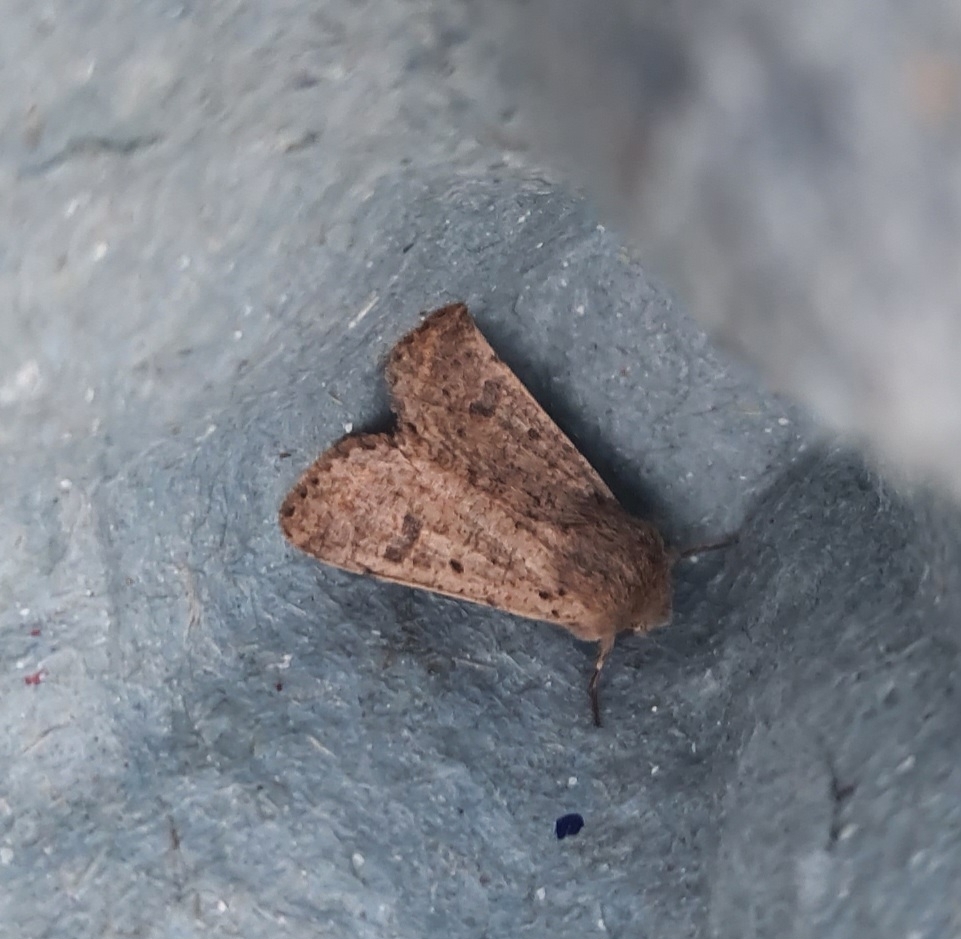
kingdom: Animalia
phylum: Arthropoda
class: Insecta
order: Lepidoptera
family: Noctuidae
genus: Orthosia
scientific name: Orthosia cruda
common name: Small quaker
